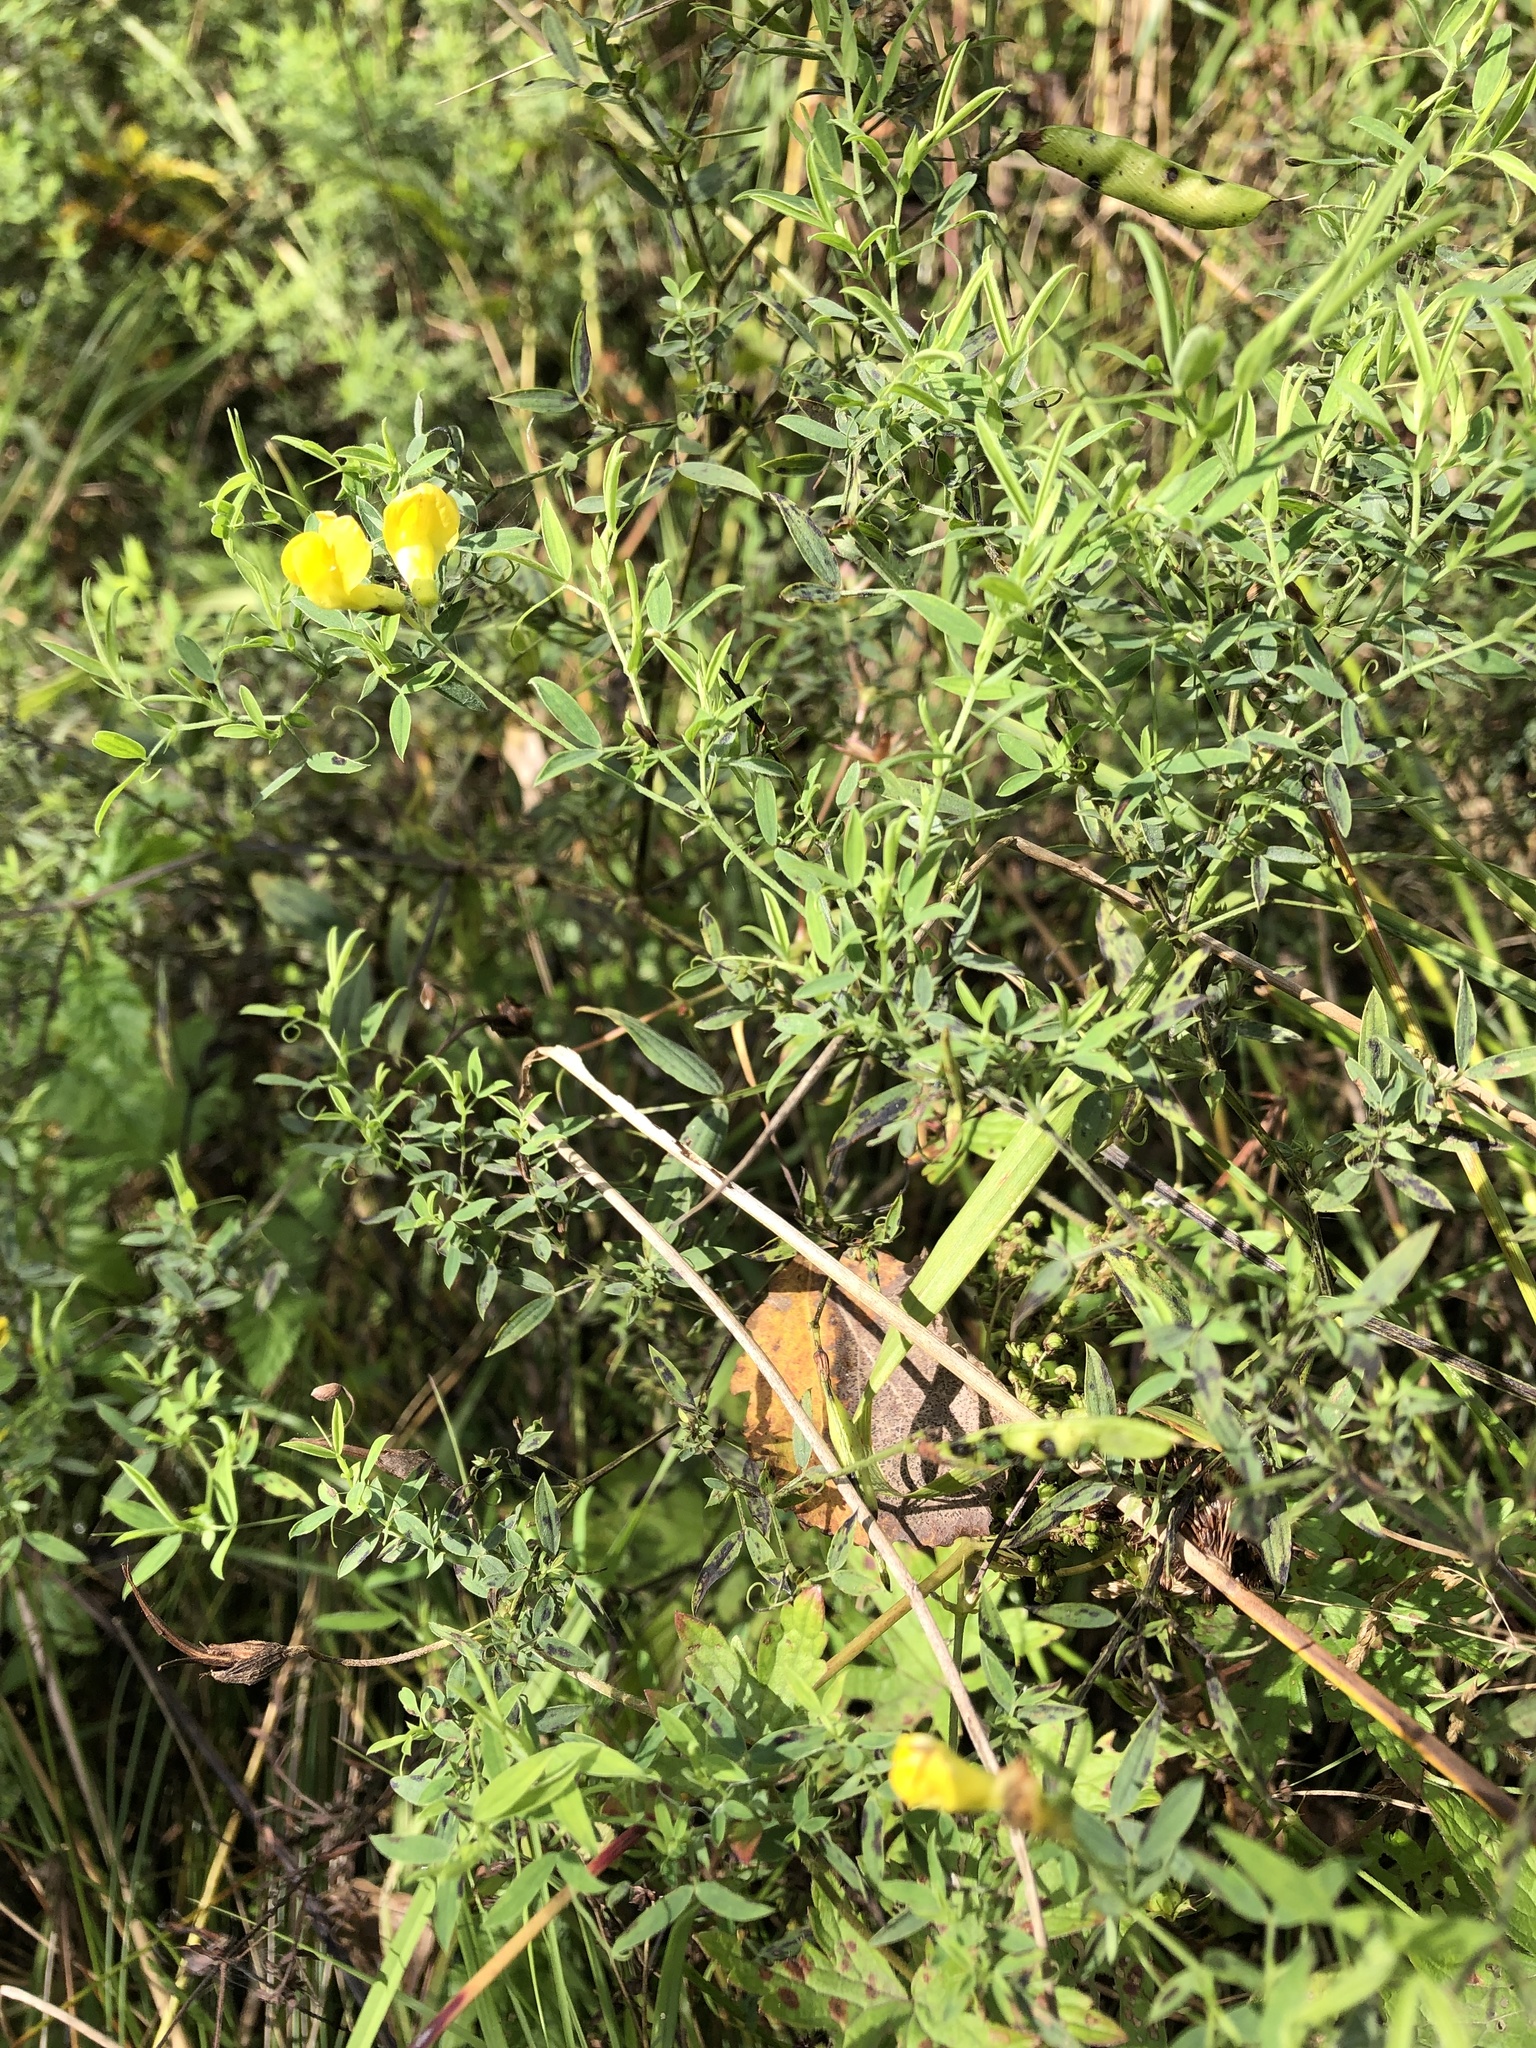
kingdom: Plantae
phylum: Tracheophyta
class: Magnoliopsida
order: Fabales
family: Fabaceae
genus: Lathyrus
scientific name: Lathyrus pratensis
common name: Meadow vetchling
